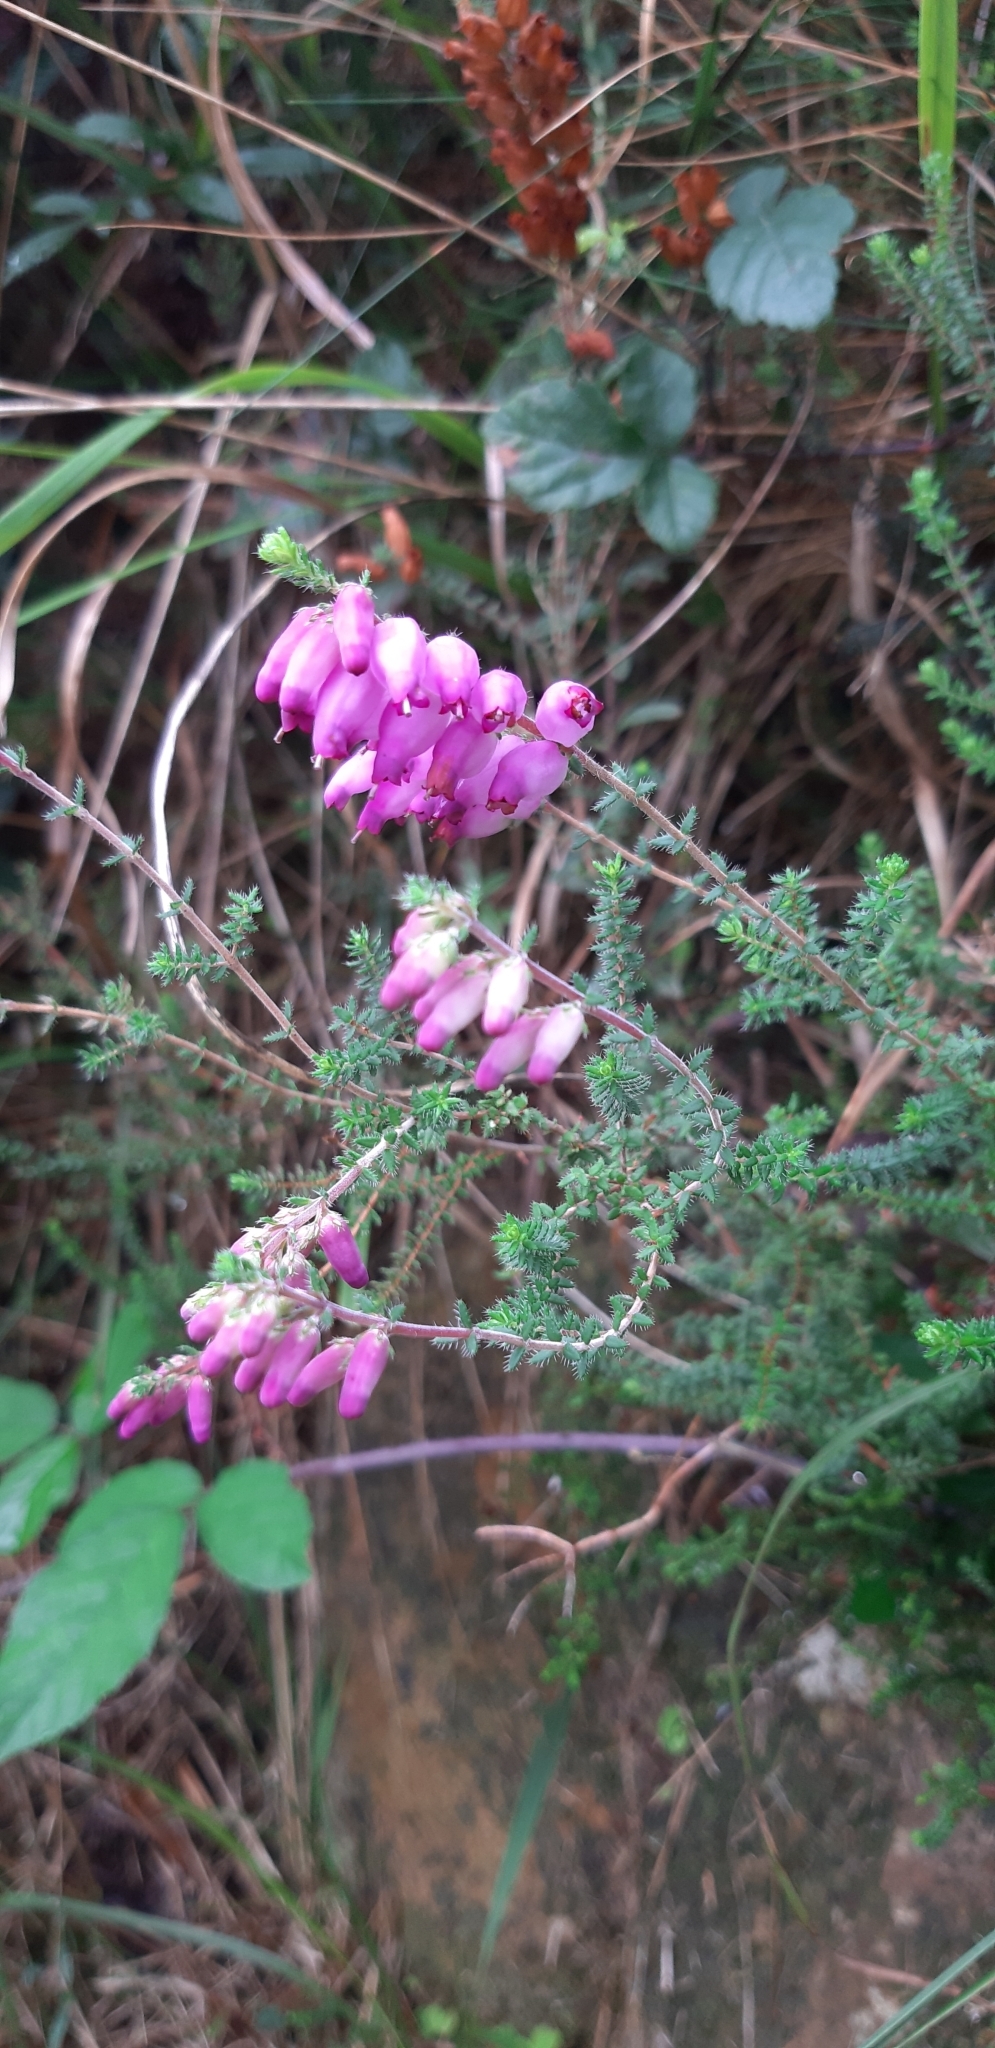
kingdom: Plantae
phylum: Tracheophyta
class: Magnoliopsida
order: Ericales
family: Ericaceae
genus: Erica
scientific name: Erica ciliaris
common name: Dorset heath
